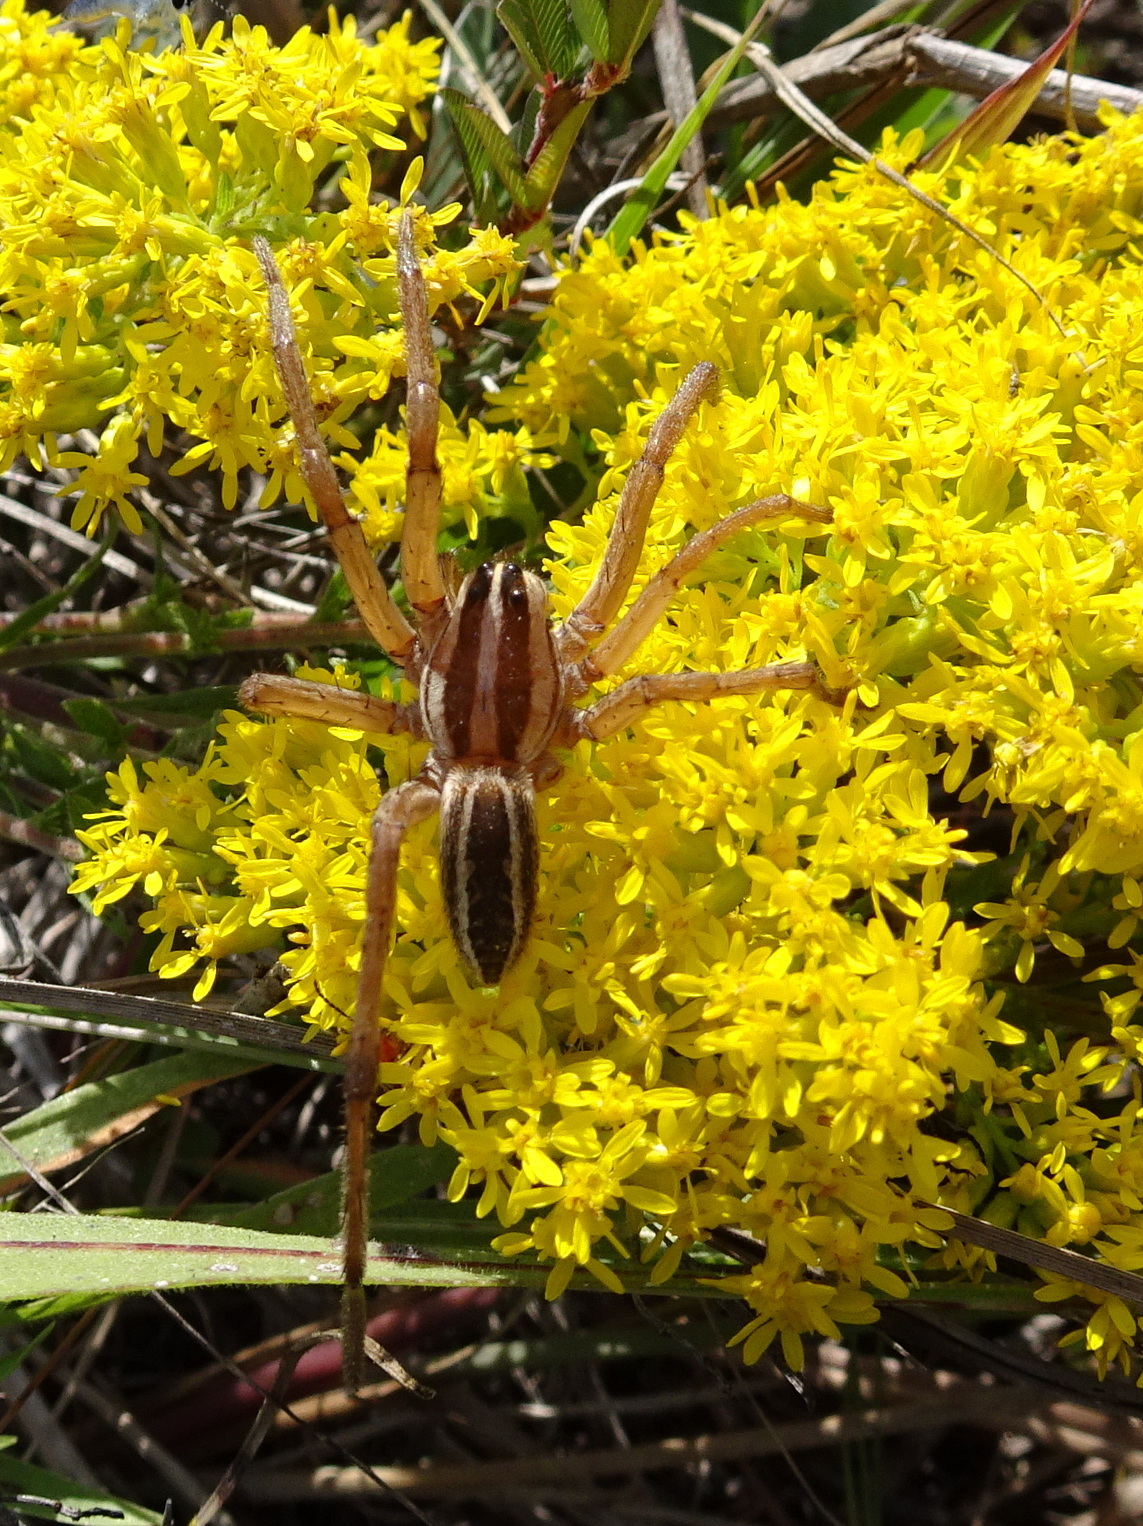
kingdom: Animalia
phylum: Arthropoda
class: Arachnida
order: Araneae
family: Lycosidae
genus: Rabidosa
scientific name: Rabidosa rabida
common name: Rabid wolf spider
